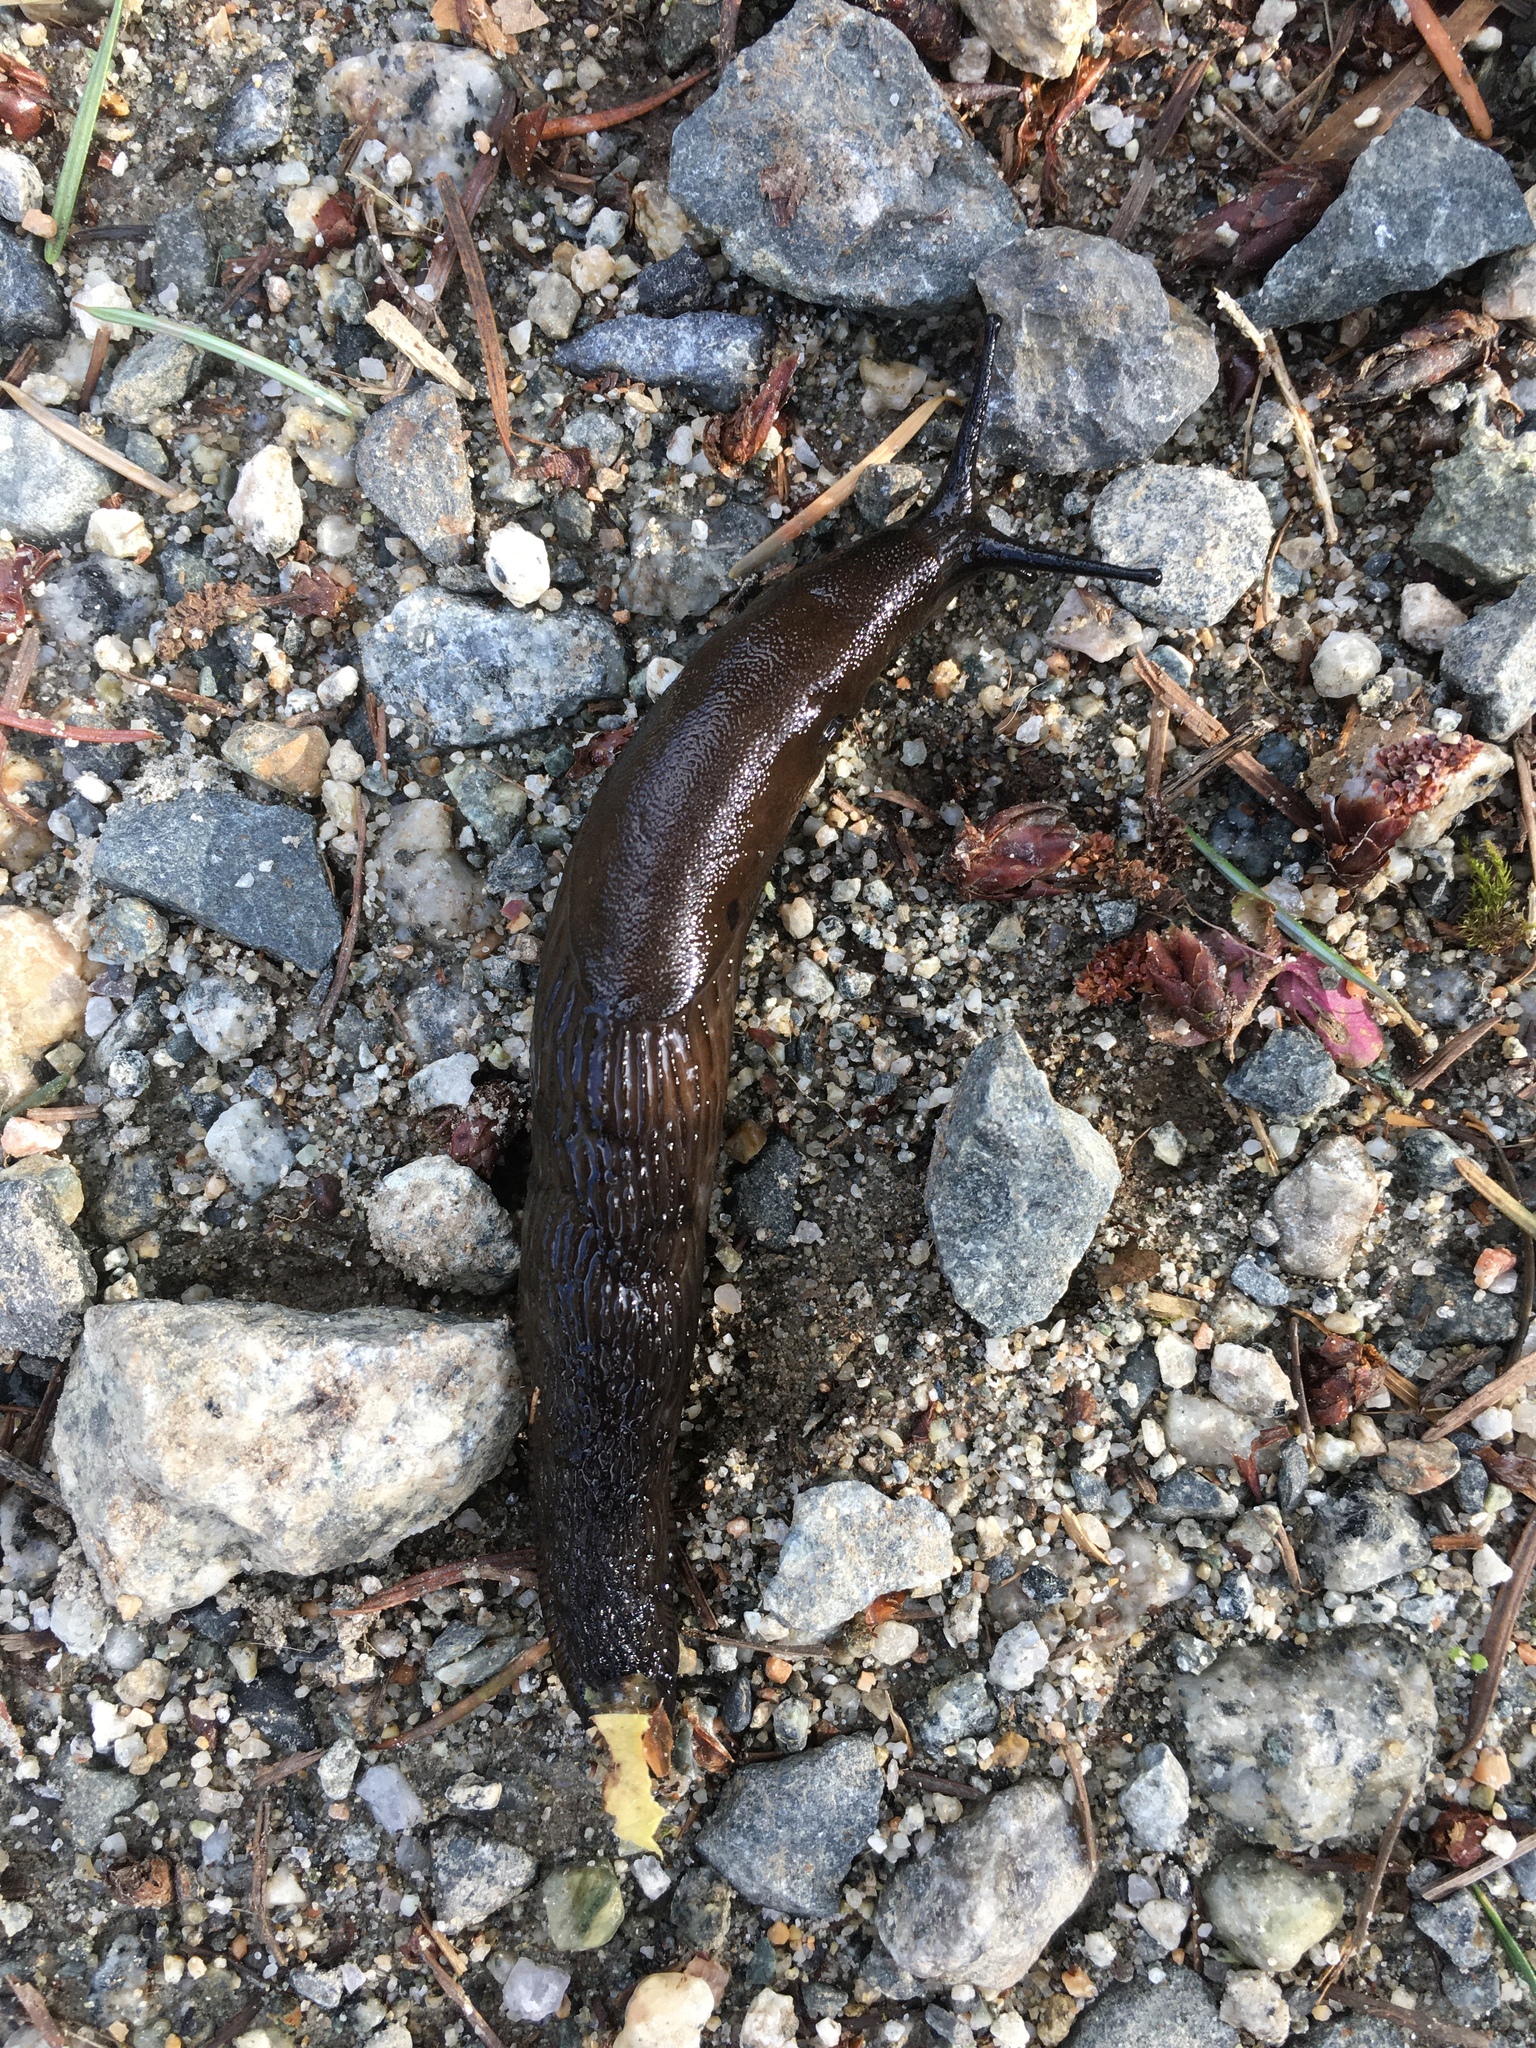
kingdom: Animalia
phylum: Mollusca
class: Gastropoda
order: Stylommatophora
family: Arionidae
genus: Arion
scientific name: Arion rufus
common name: Chocolate arion
